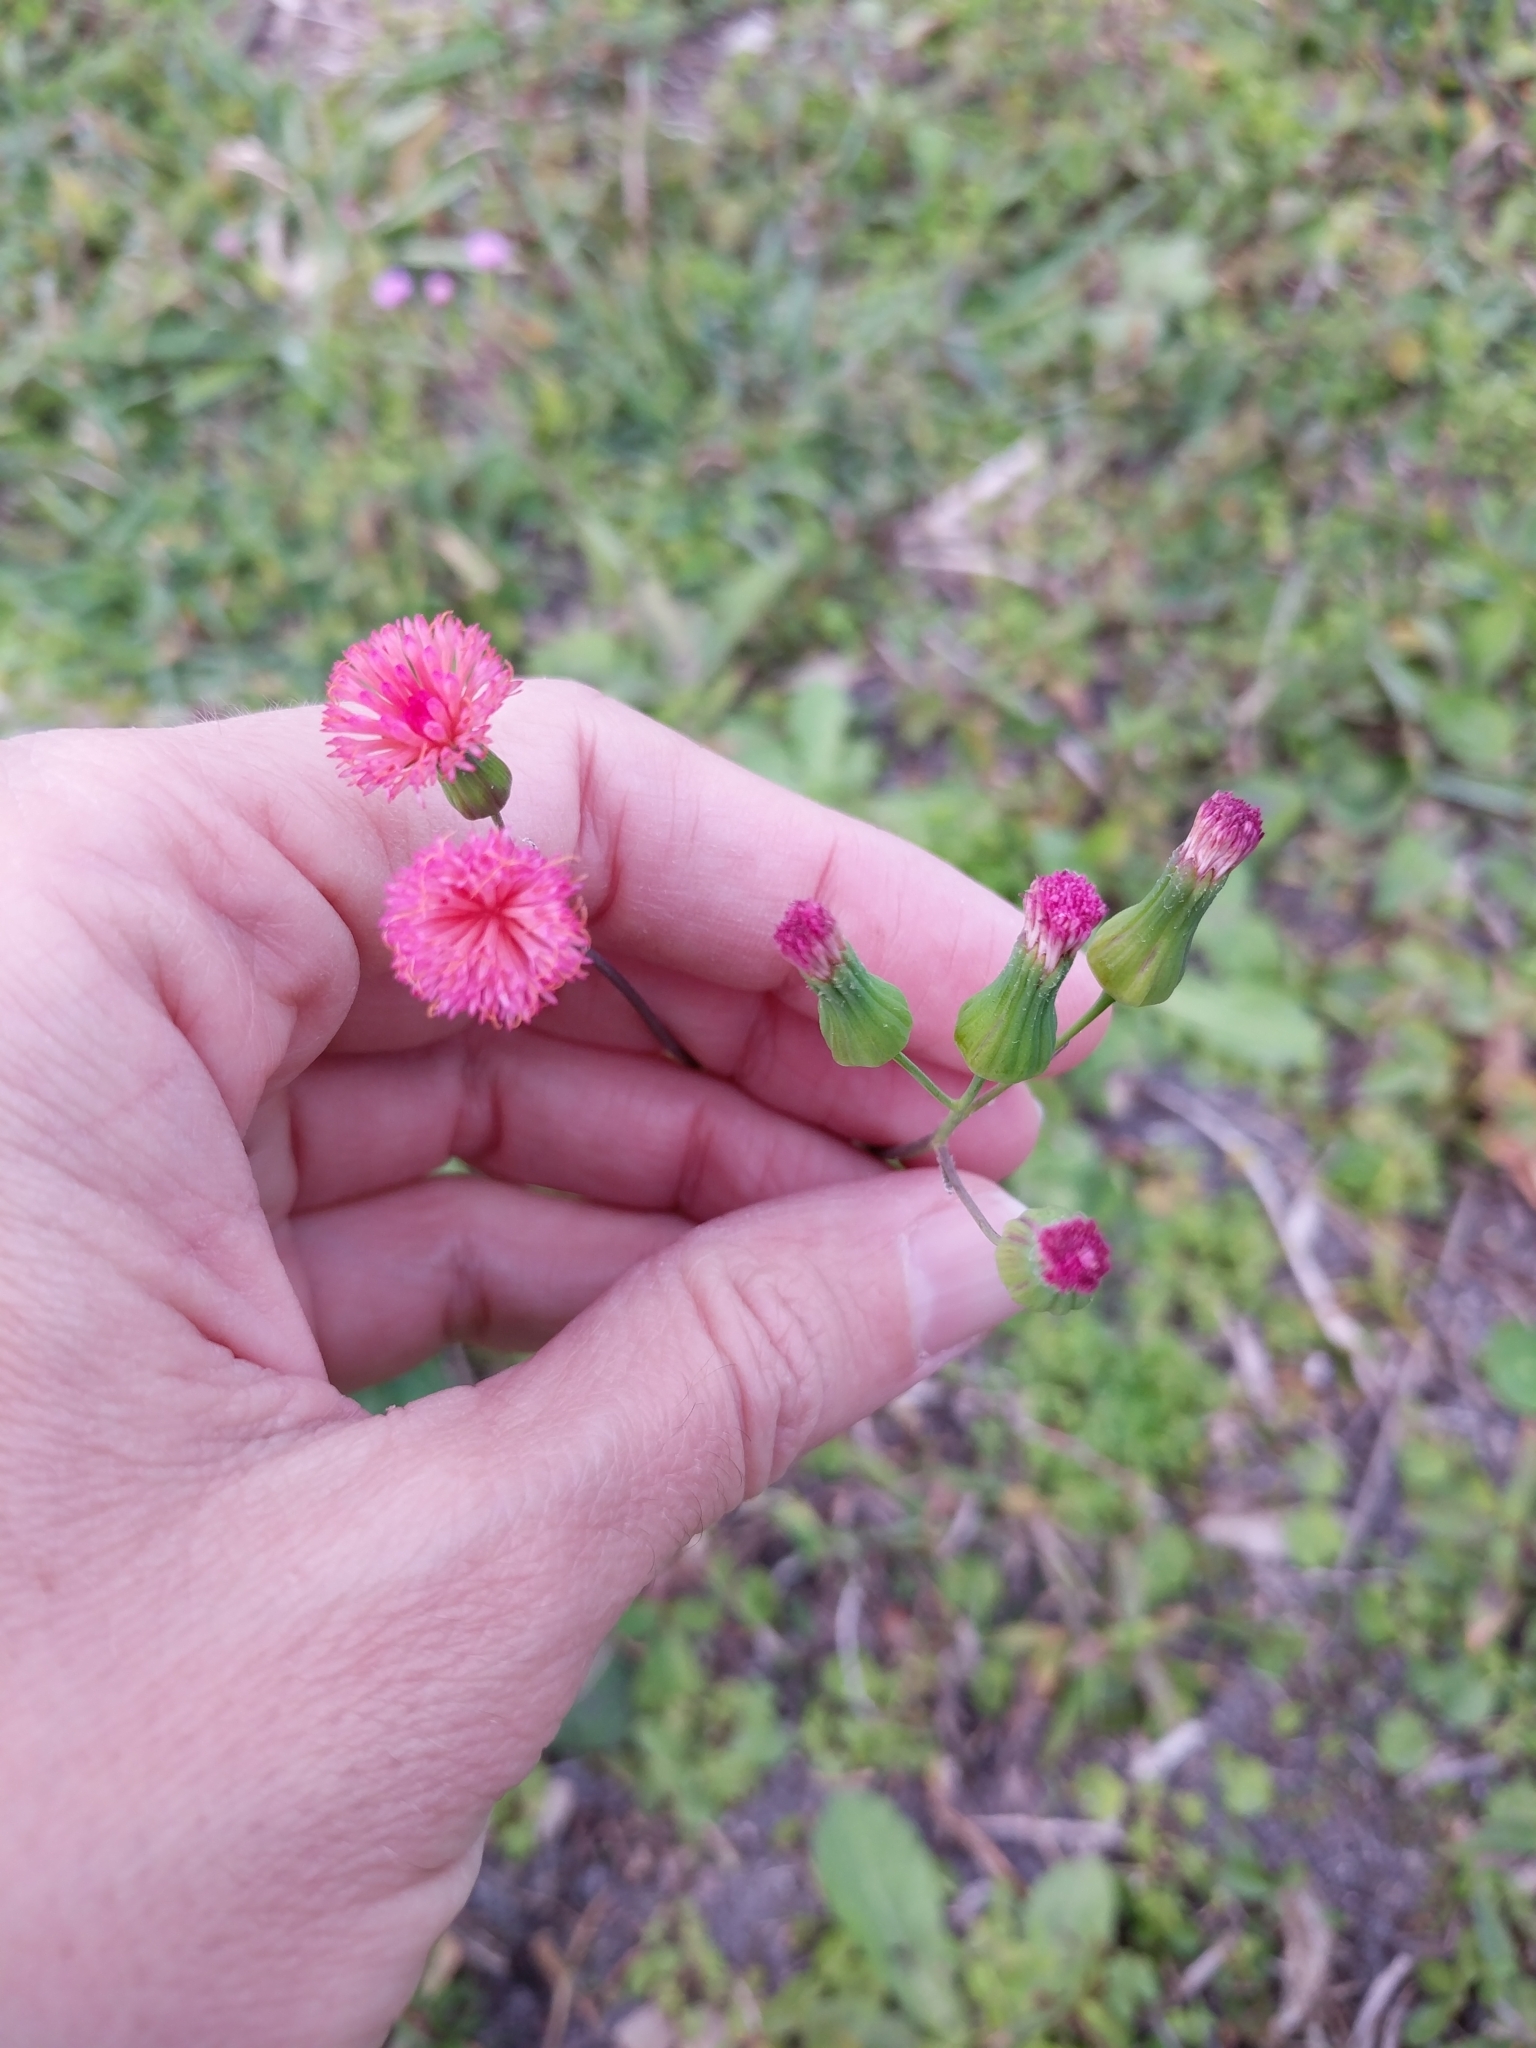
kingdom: Plantae
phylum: Tracheophyta
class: Magnoliopsida
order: Asterales
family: Asteraceae
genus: Emilia
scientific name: Emilia fosbergii
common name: Florida tasselflower
